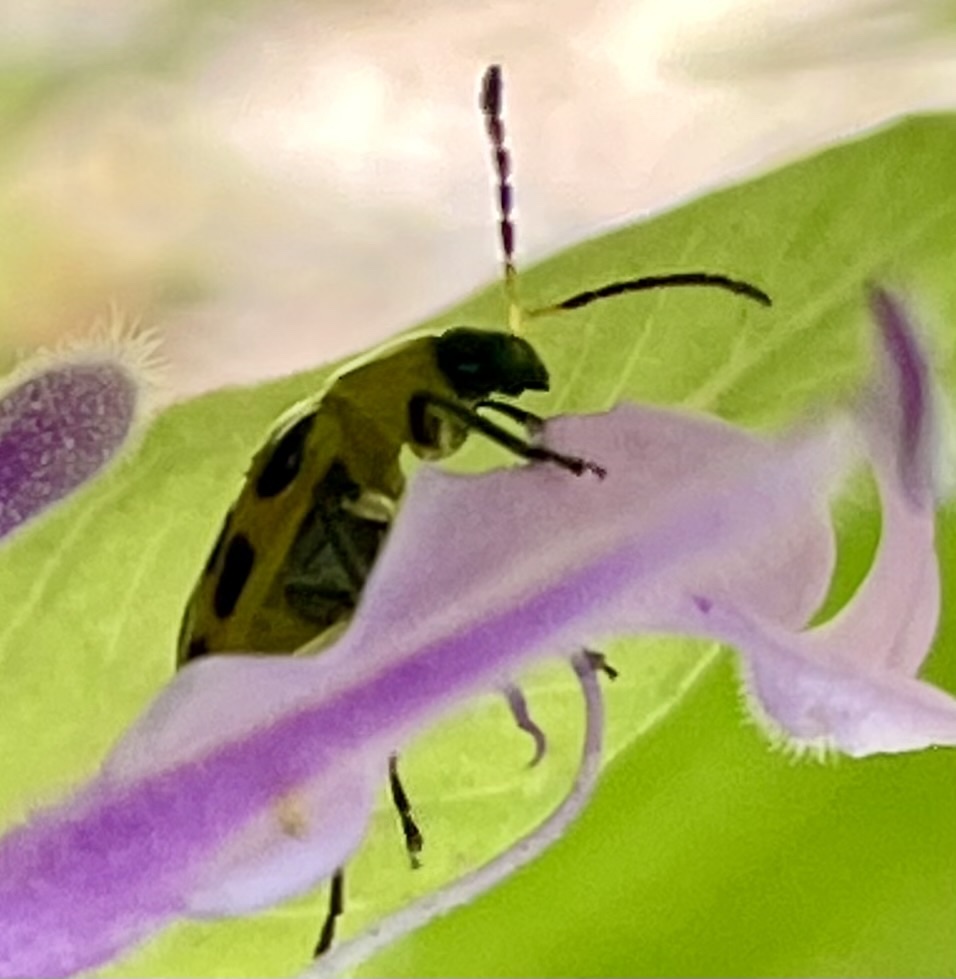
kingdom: Animalia
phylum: Arthropoda
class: Insecta
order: Coleoptera
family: Chrysomelidae
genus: Diabrotica
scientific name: Diabrotica undecimpunctata
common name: Spotted cucumber beetle
